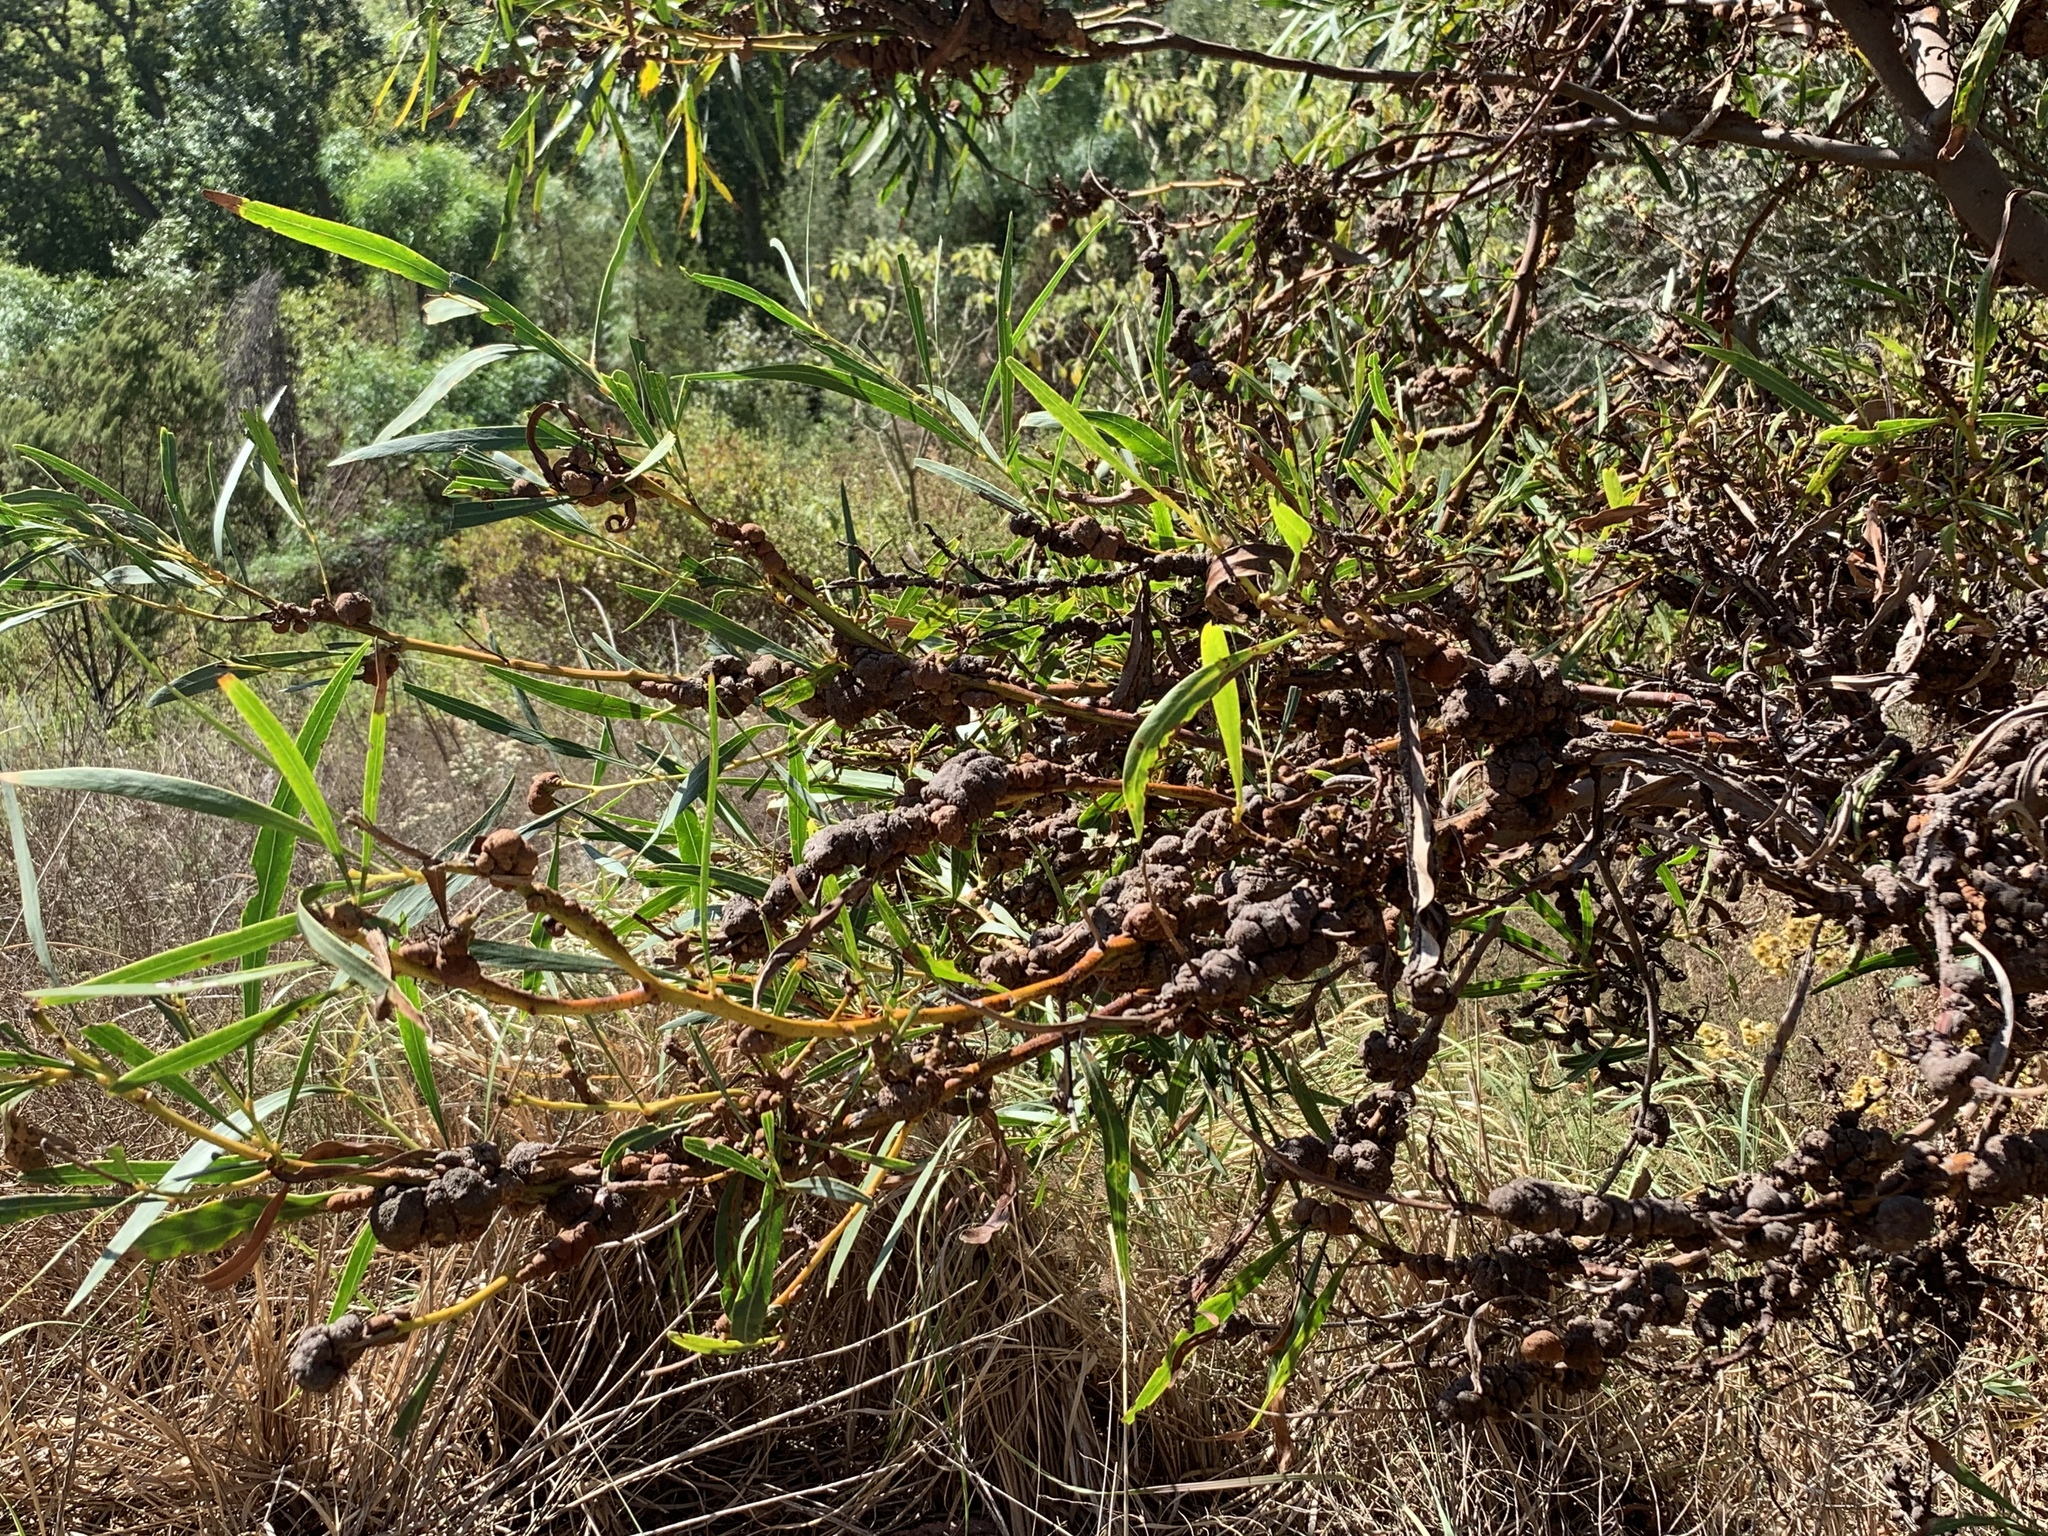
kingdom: Plantae
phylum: Tracheophyta
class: Magnoliopsida
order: Fabales
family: Fabaceae
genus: Acacia
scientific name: Acacia saligna
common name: Orange wattle
